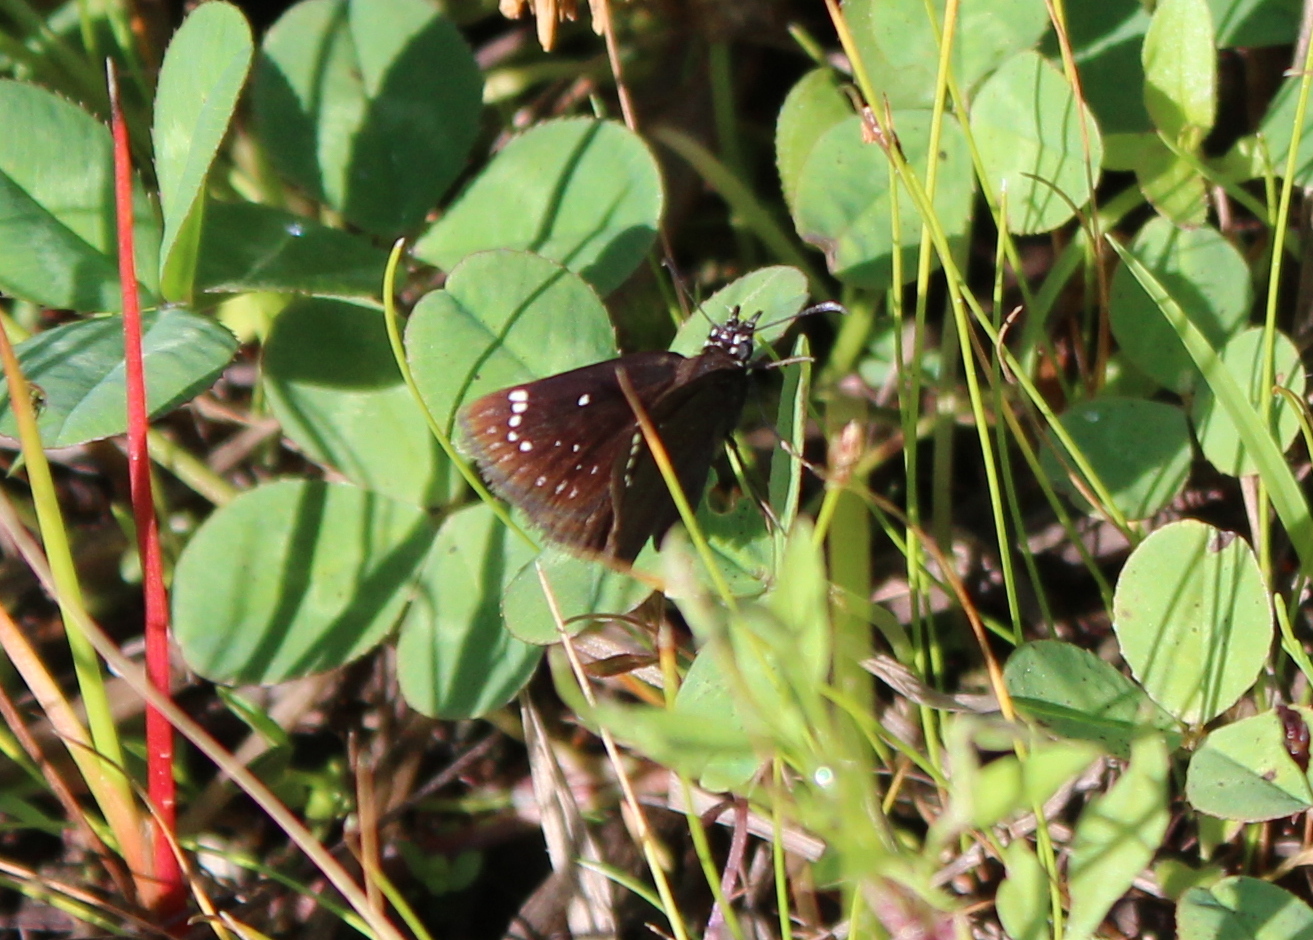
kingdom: Animalia
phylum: Arthropoda
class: Insecta
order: Lepidoptera
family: Hesperiidae
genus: Pholisora
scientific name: Pholisora catullus
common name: Common sootywing
